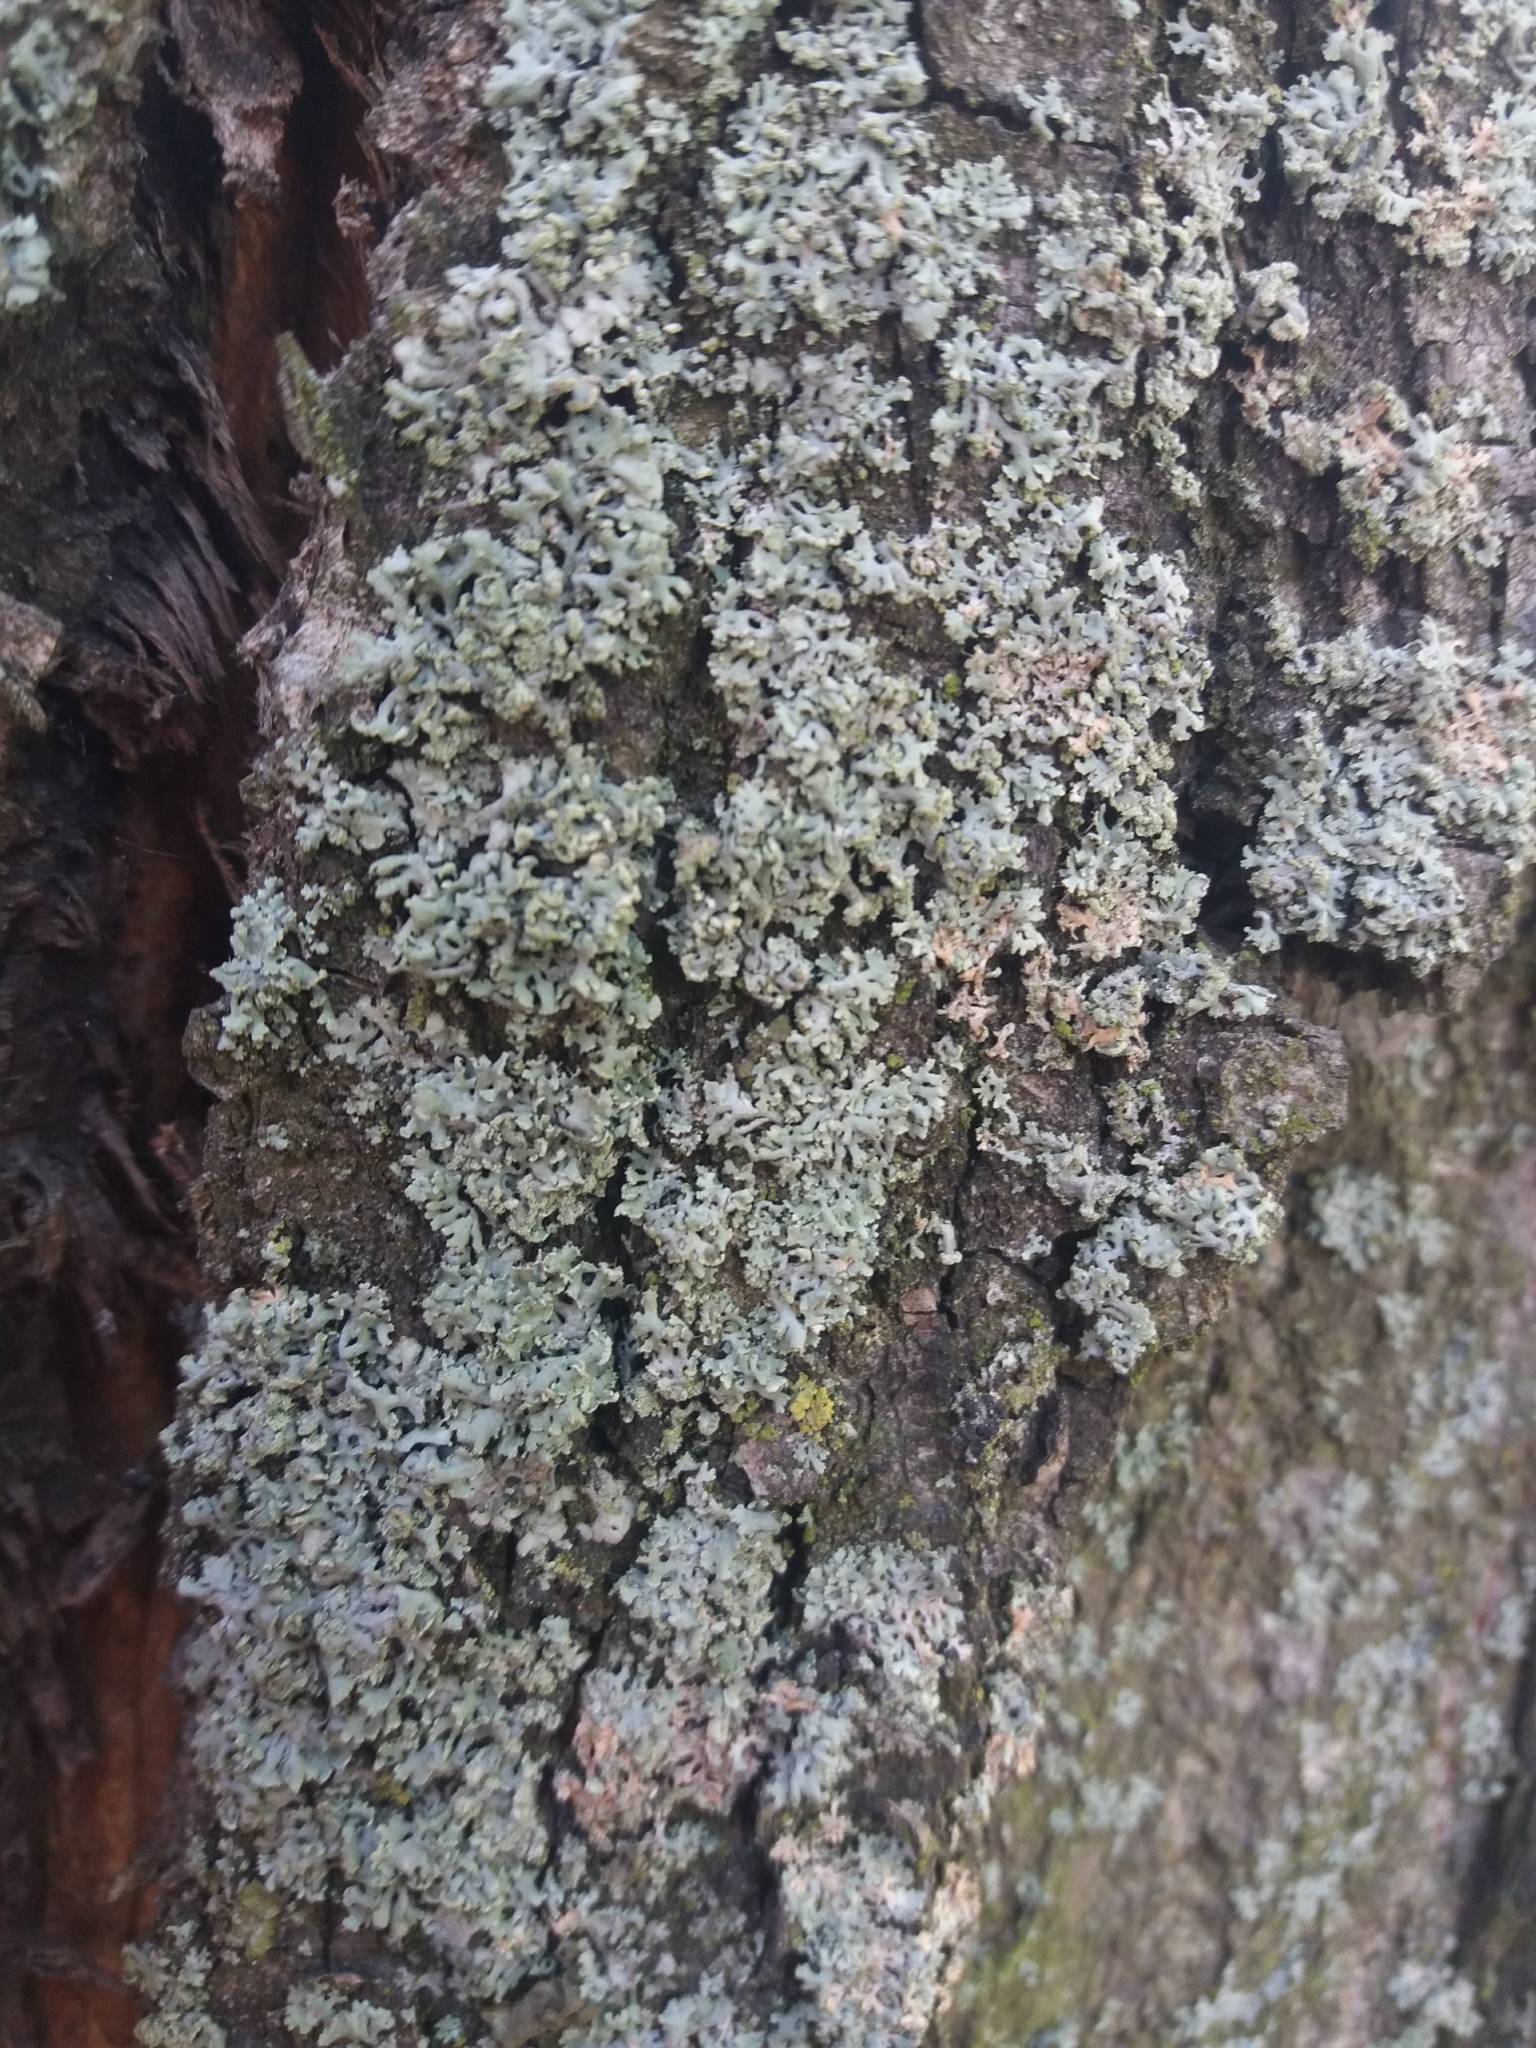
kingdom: Fungi
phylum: Ascomycota
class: Lecanoromycetes
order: Caliciales
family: Physciaceae
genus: Physcia
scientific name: Physcia tenella
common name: Fringed rosette lichen
